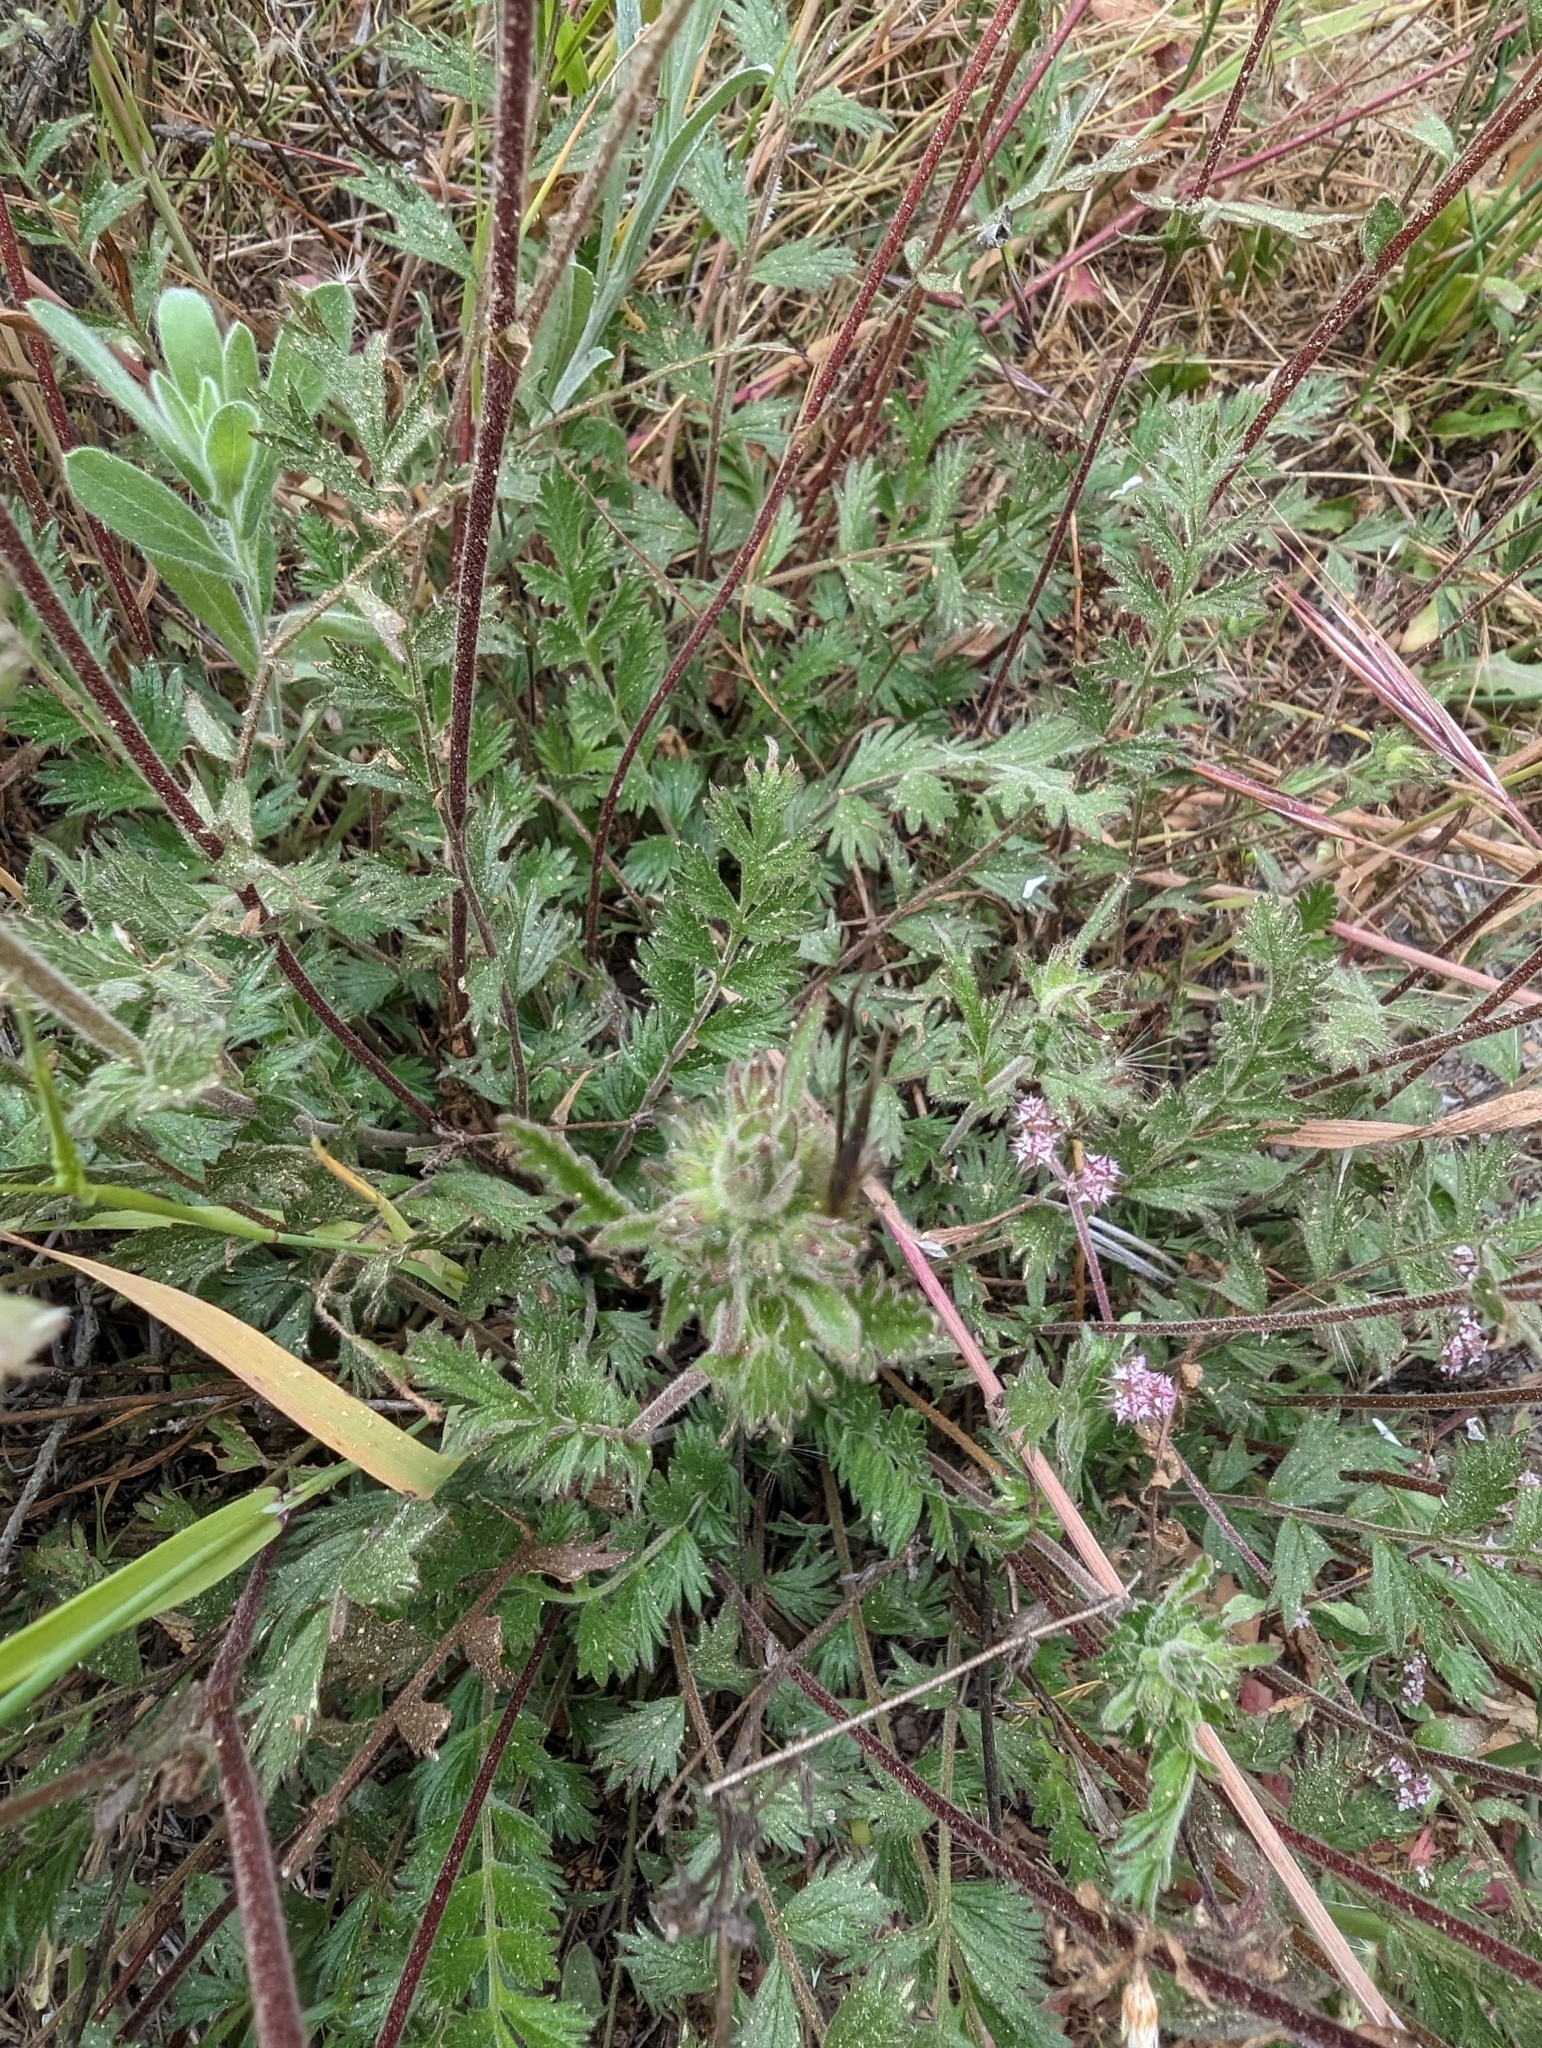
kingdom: Plantae
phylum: Tracheophyta
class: Magnoliopsida
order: Rosales
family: Rosaceae
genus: Potentilla
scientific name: Potentilla
